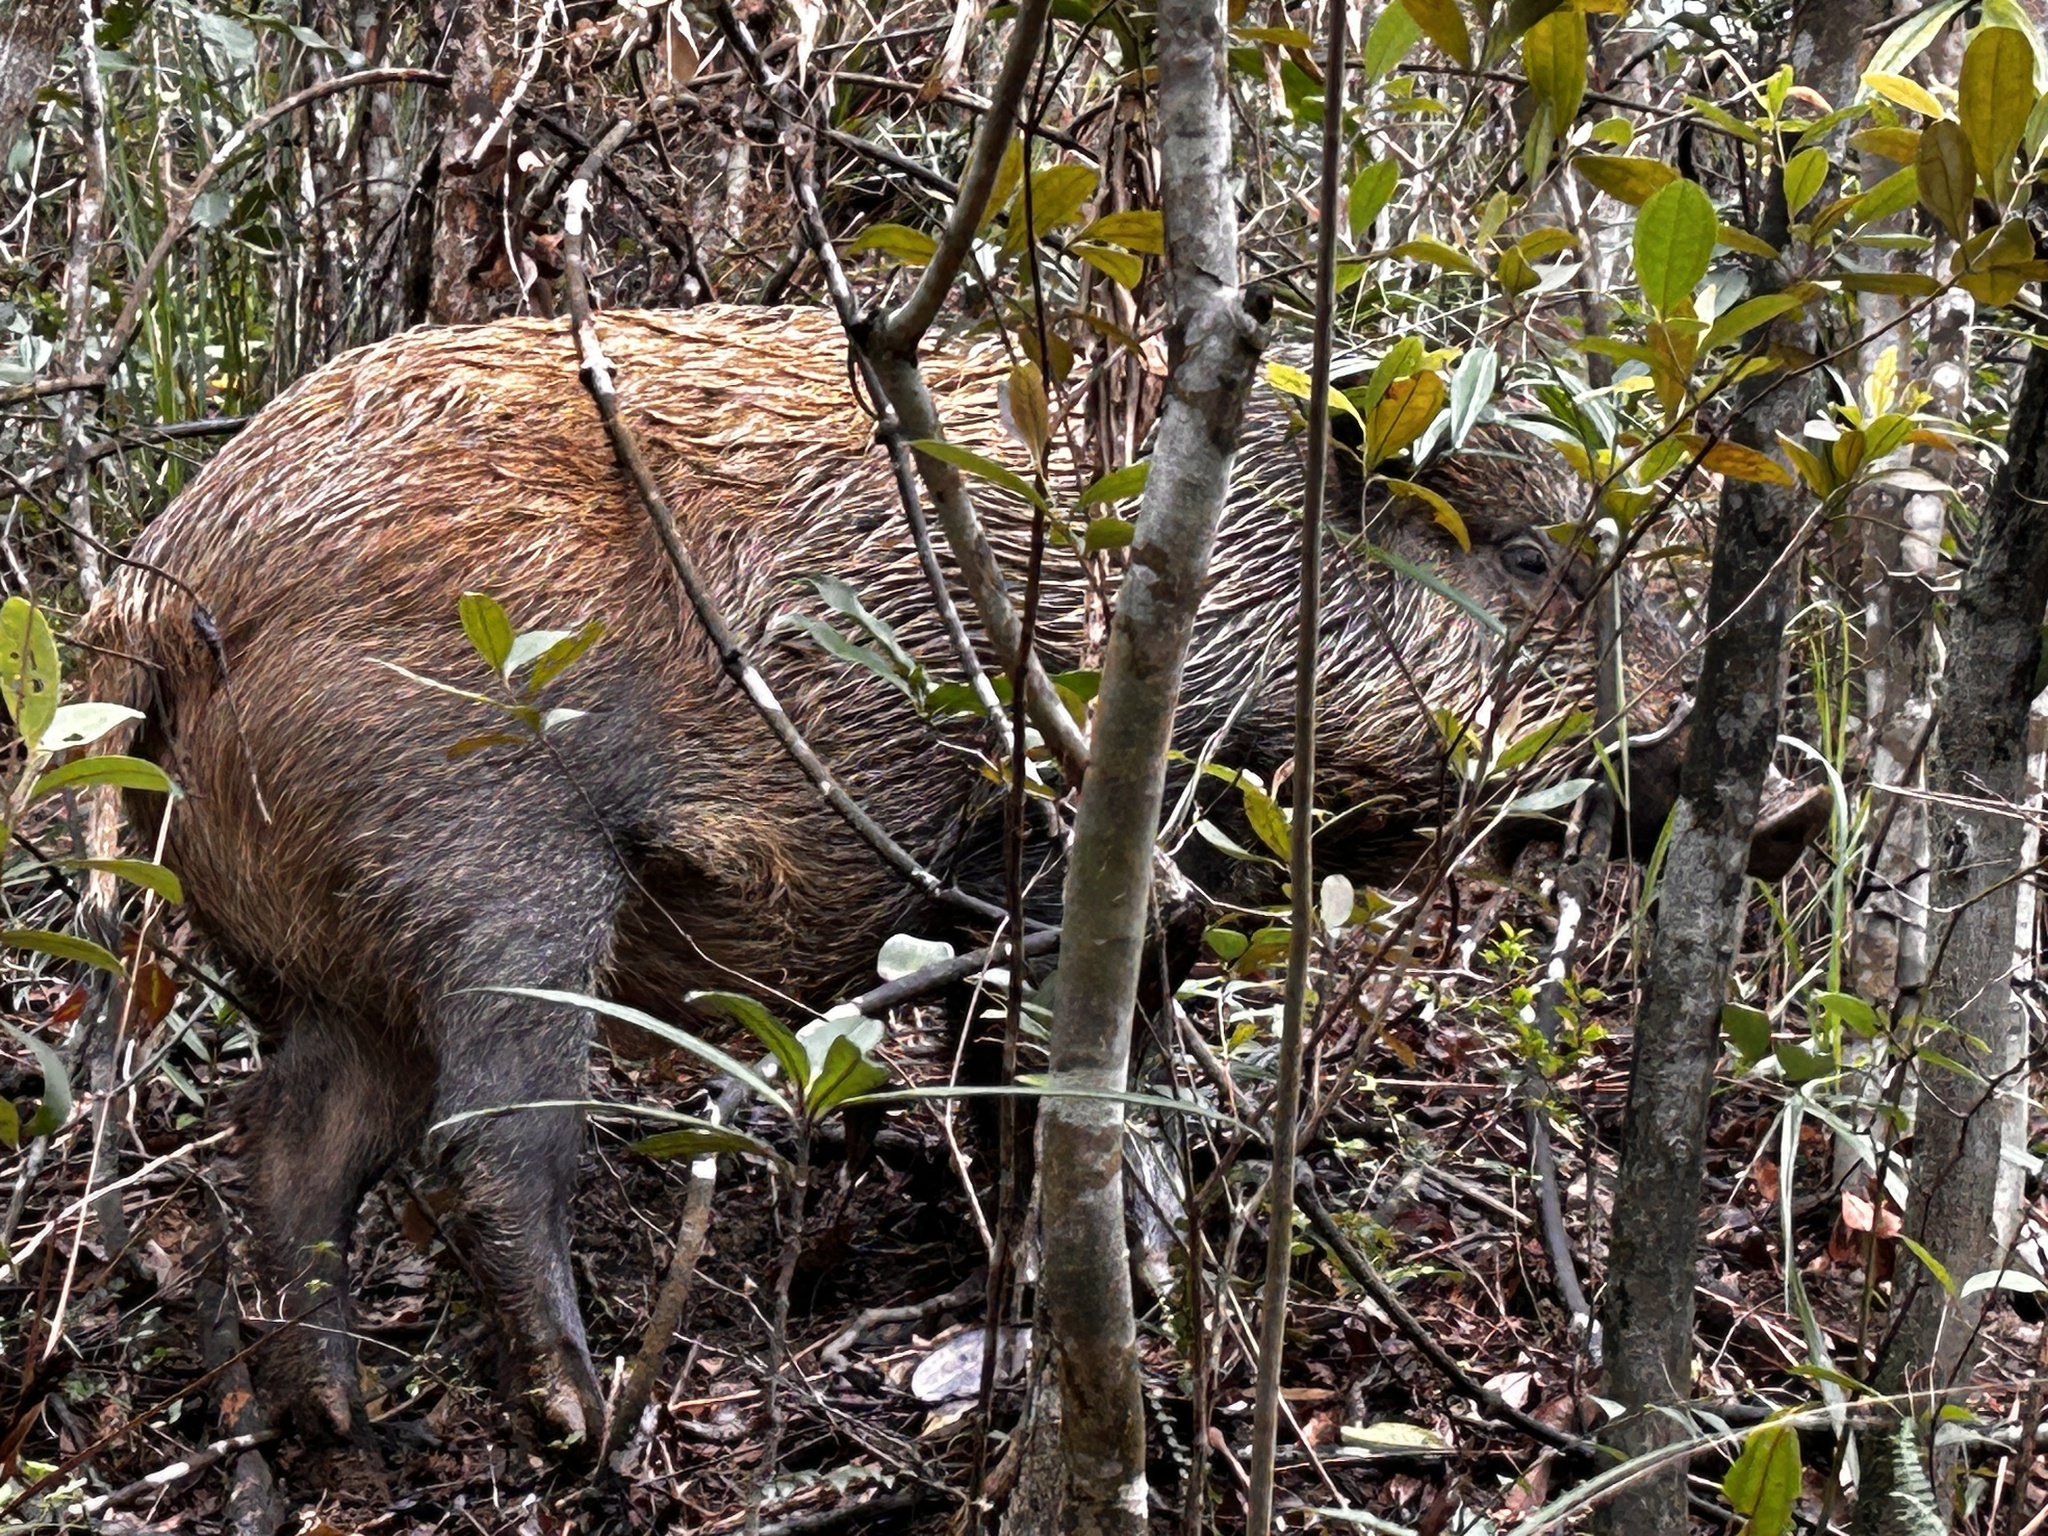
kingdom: Animalia
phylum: Chordata
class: Mammalia
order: Artiodactyla
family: Suidae
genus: Sus
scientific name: Sus scrofa
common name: Wild boar
